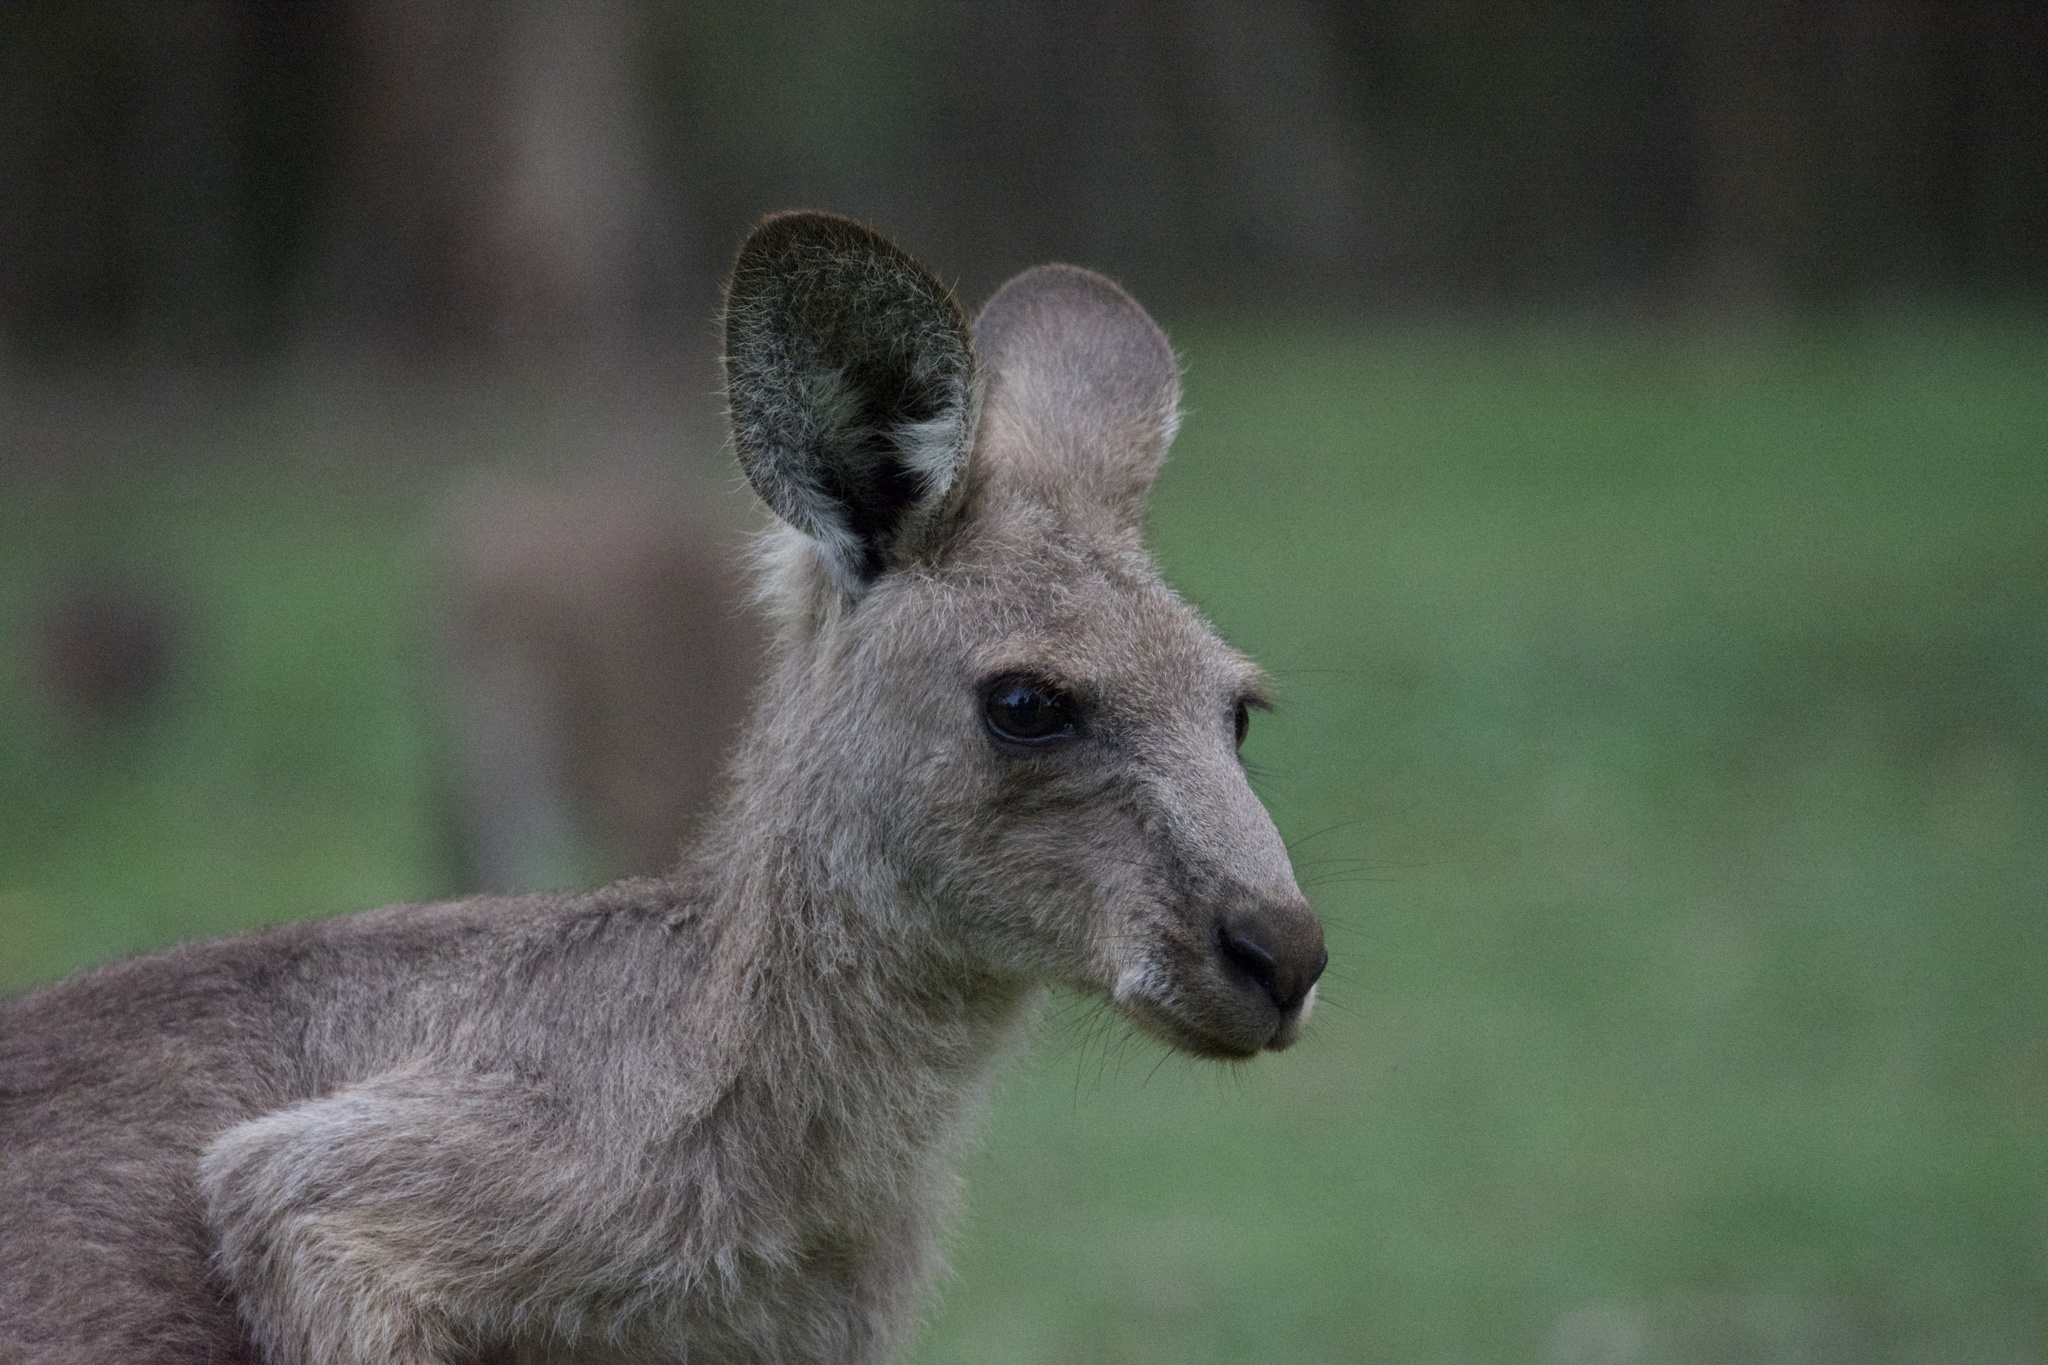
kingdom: Animalia
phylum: Chordata
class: Mammalia
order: Diprotodontia
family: Macropodidae
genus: Macropus
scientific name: Macropus giganteus
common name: Eastern grey kangaroo
